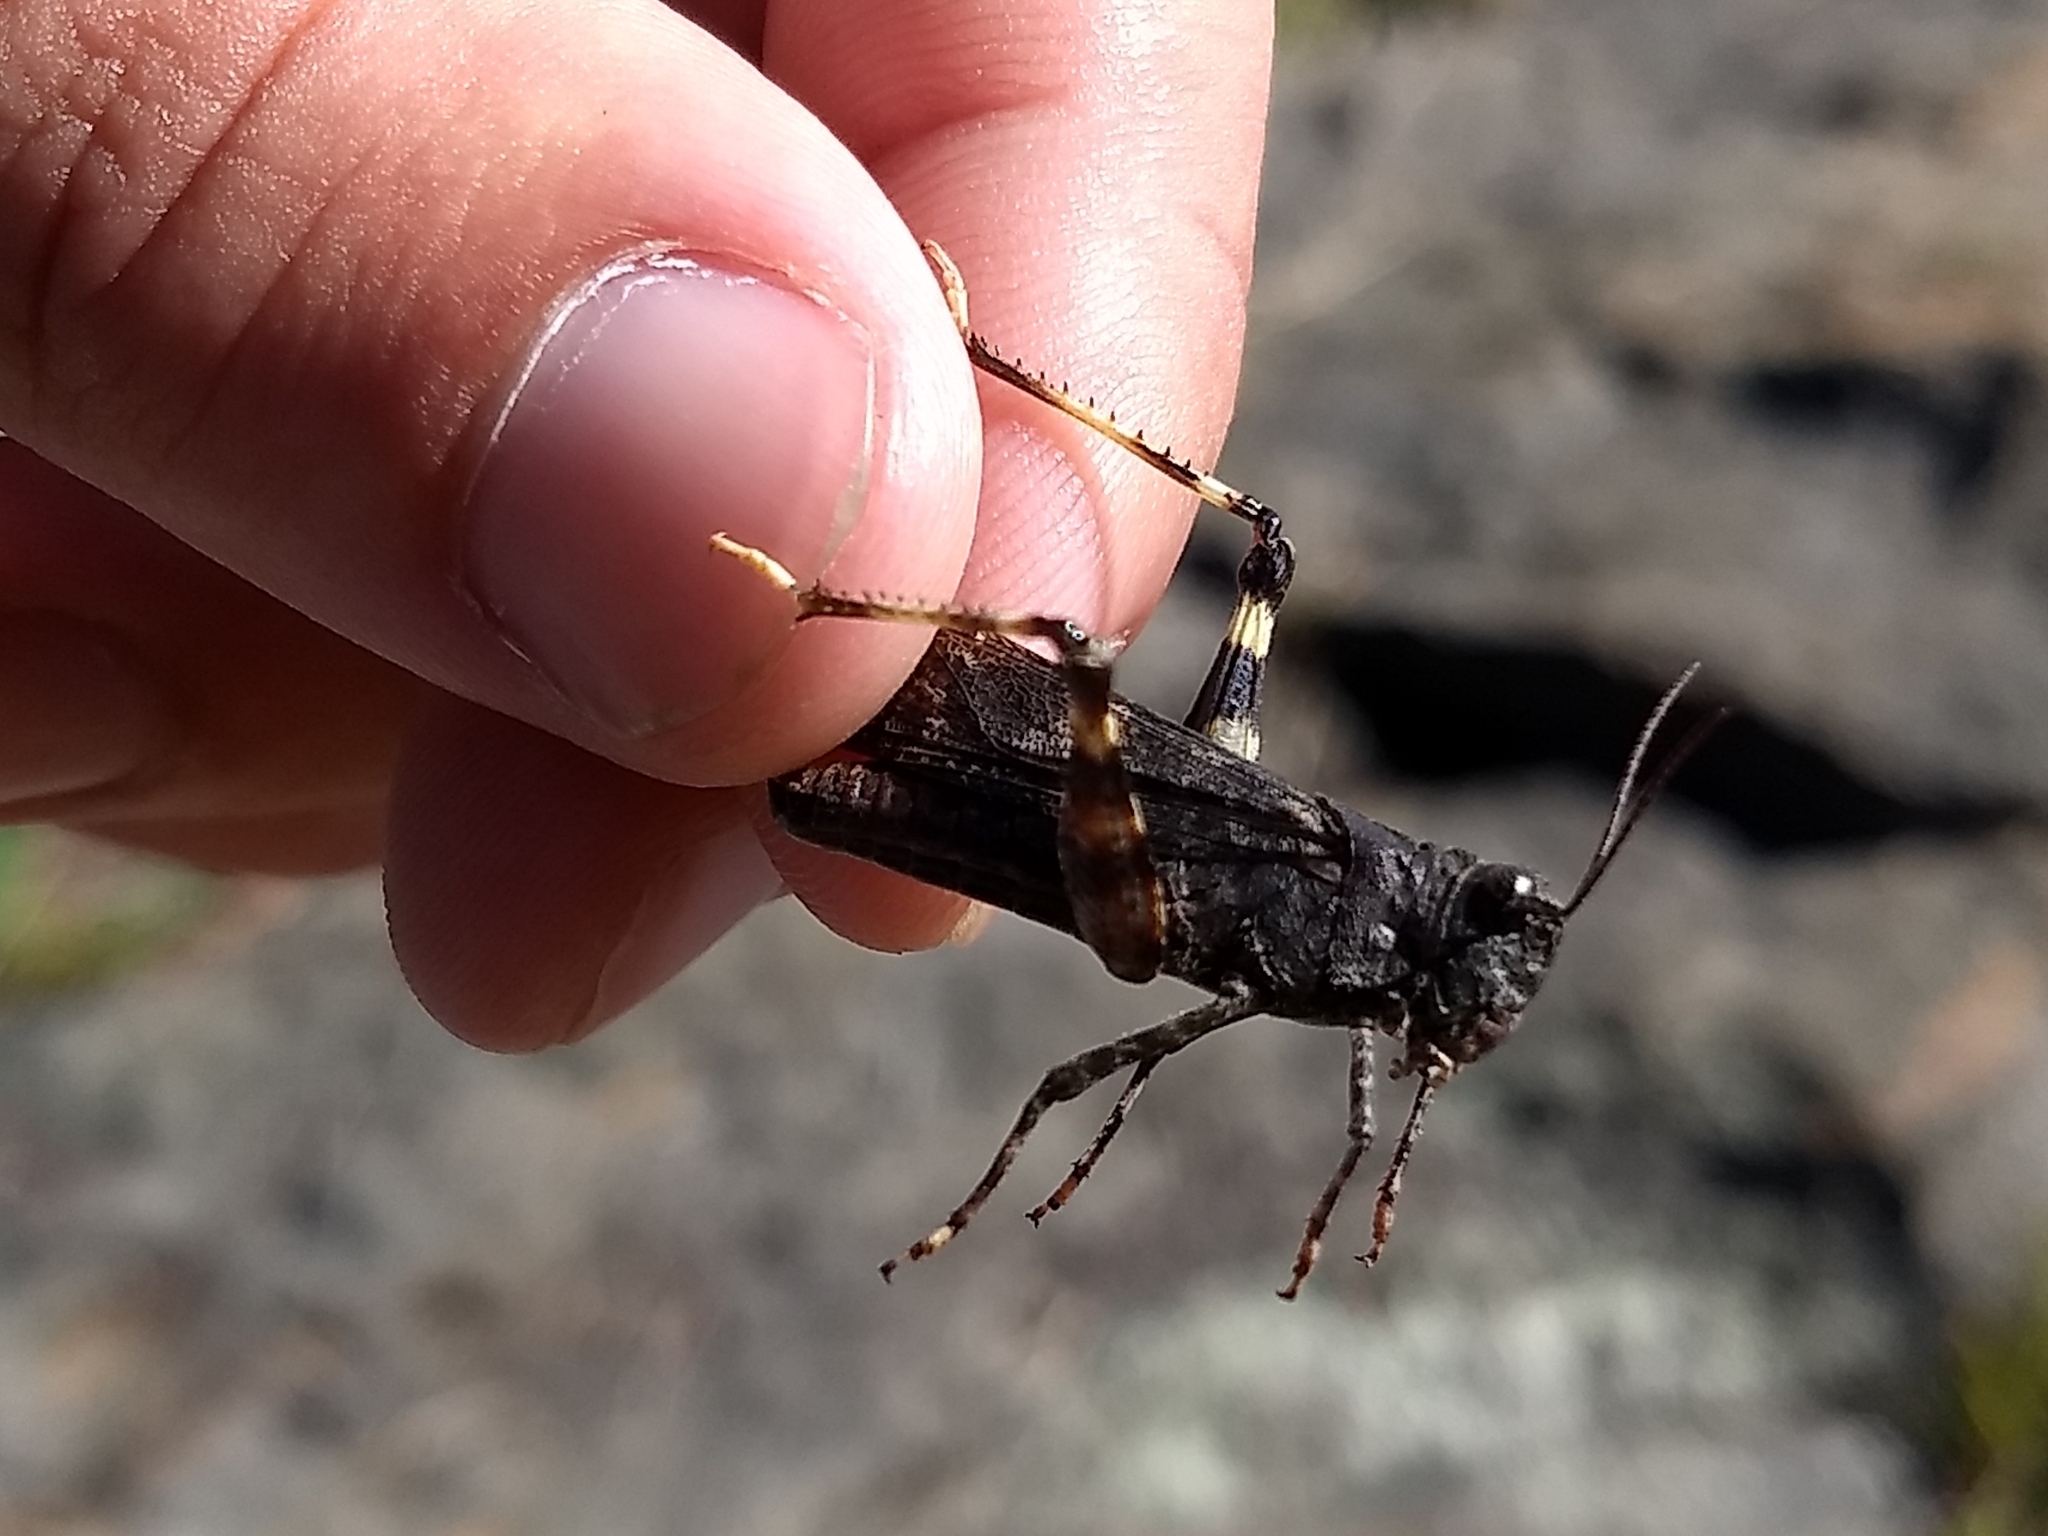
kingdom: Animalia
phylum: Arthropoda
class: Insecta
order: Orthoptera
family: Acrididae
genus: Trimerotropis
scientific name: Trimerotropis verruculata
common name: Crackling forest grasshopper
